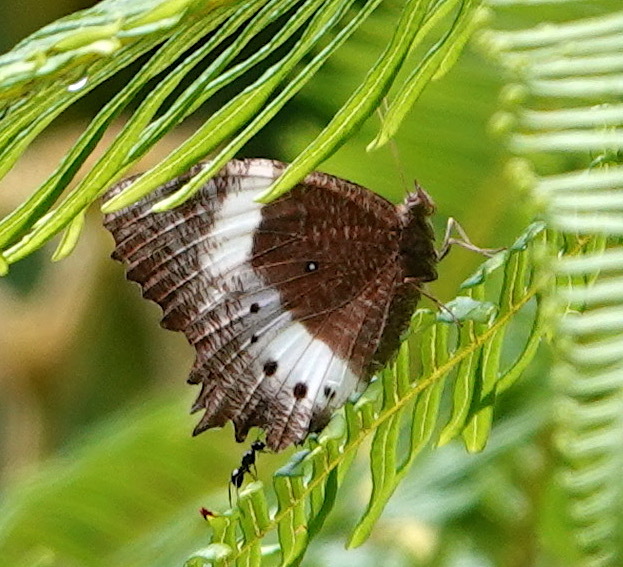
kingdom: Animalia
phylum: Arthropoda
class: Insecta
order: Lepidoptera
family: Nymphalidae
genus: Elymnias
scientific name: Elymnias dara
